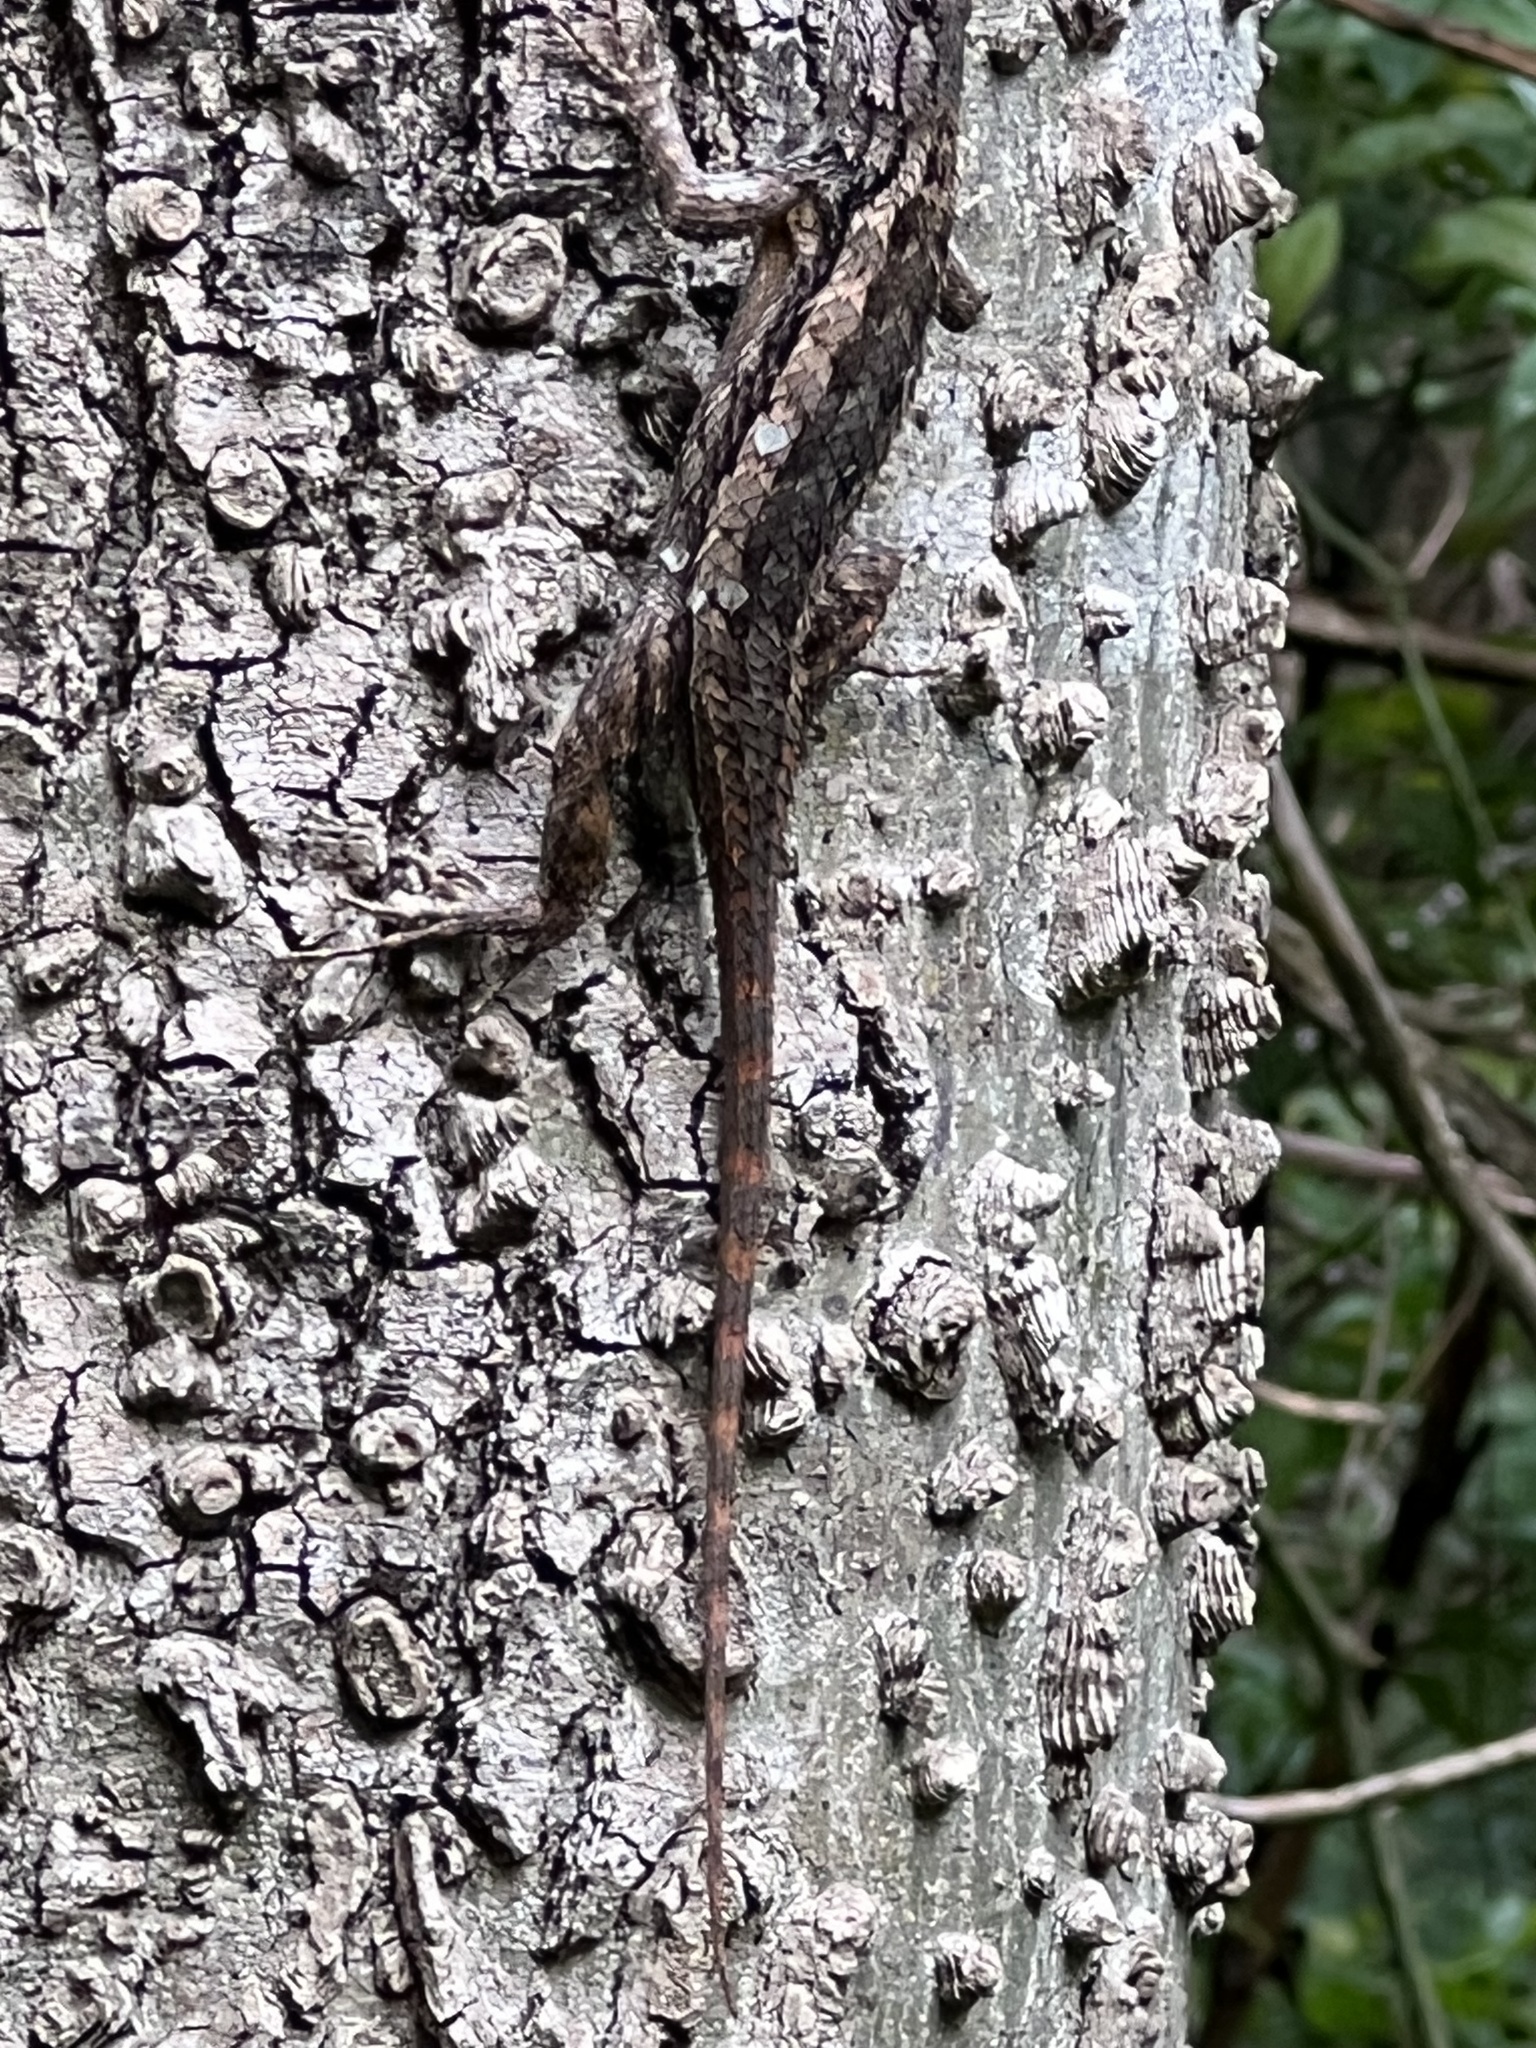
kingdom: Animalia
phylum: Chordata
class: Squamata
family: Phrynosomatidae
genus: Sceloporus
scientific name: Sceloporus olivaceus
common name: Texas spiny lizard
